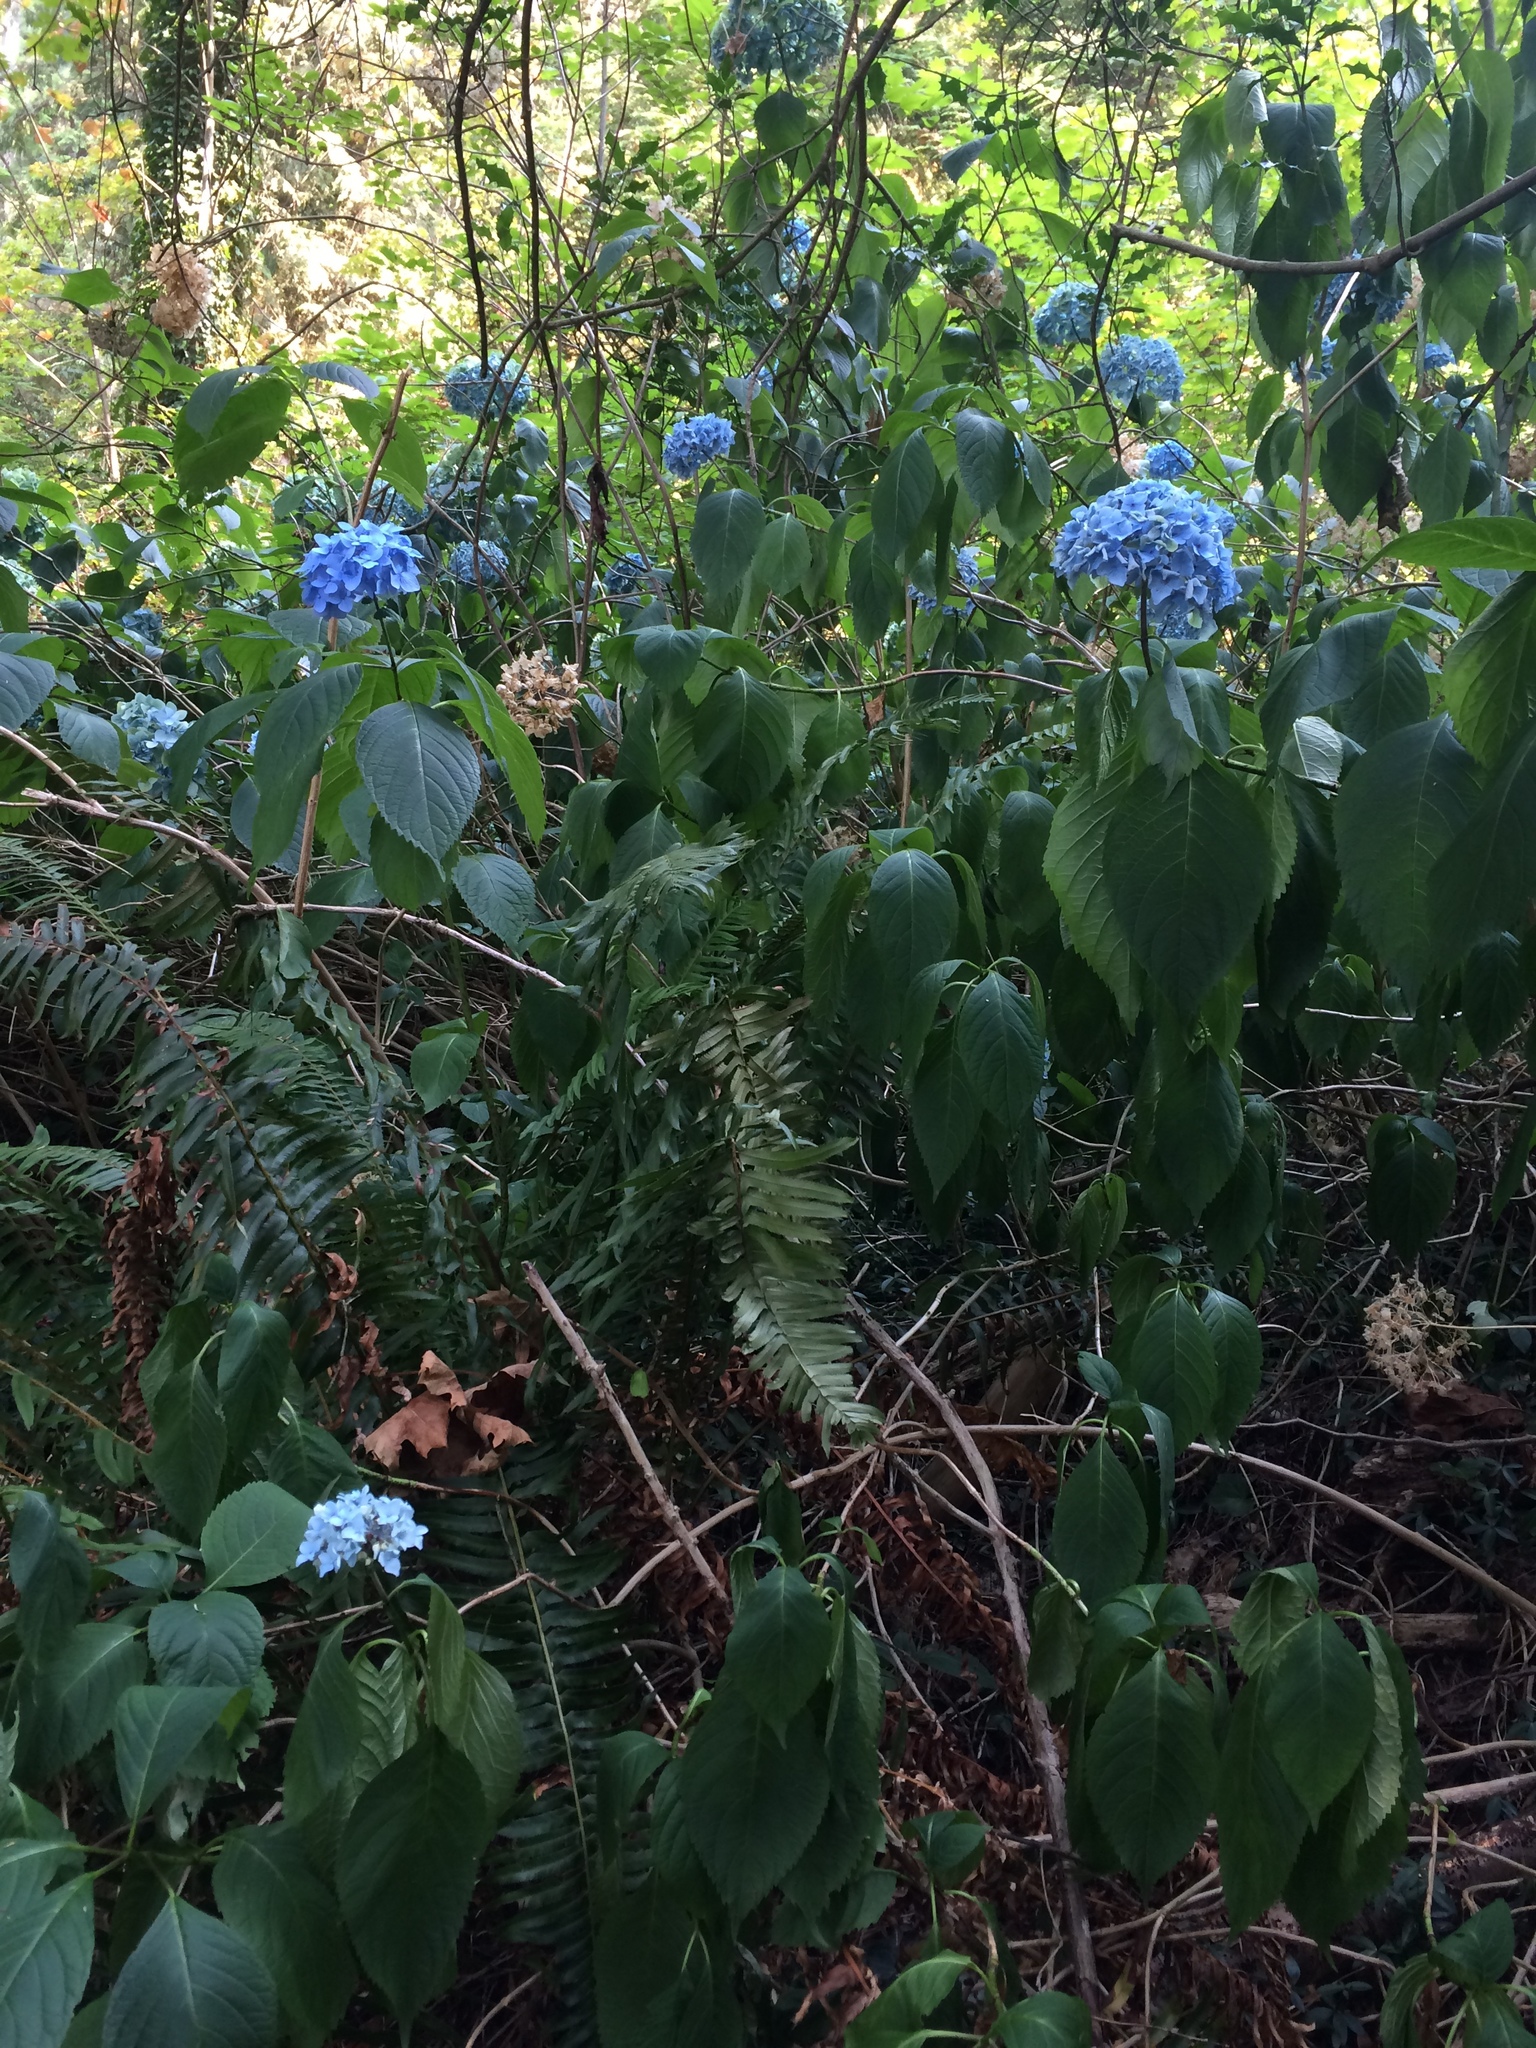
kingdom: Plantae
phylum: Tracheophyta
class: Magnoliopsida
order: Cornales
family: Hydrangeaceae
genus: Hydrangea
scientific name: Hydrangea macrophylla
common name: Hydrangea
